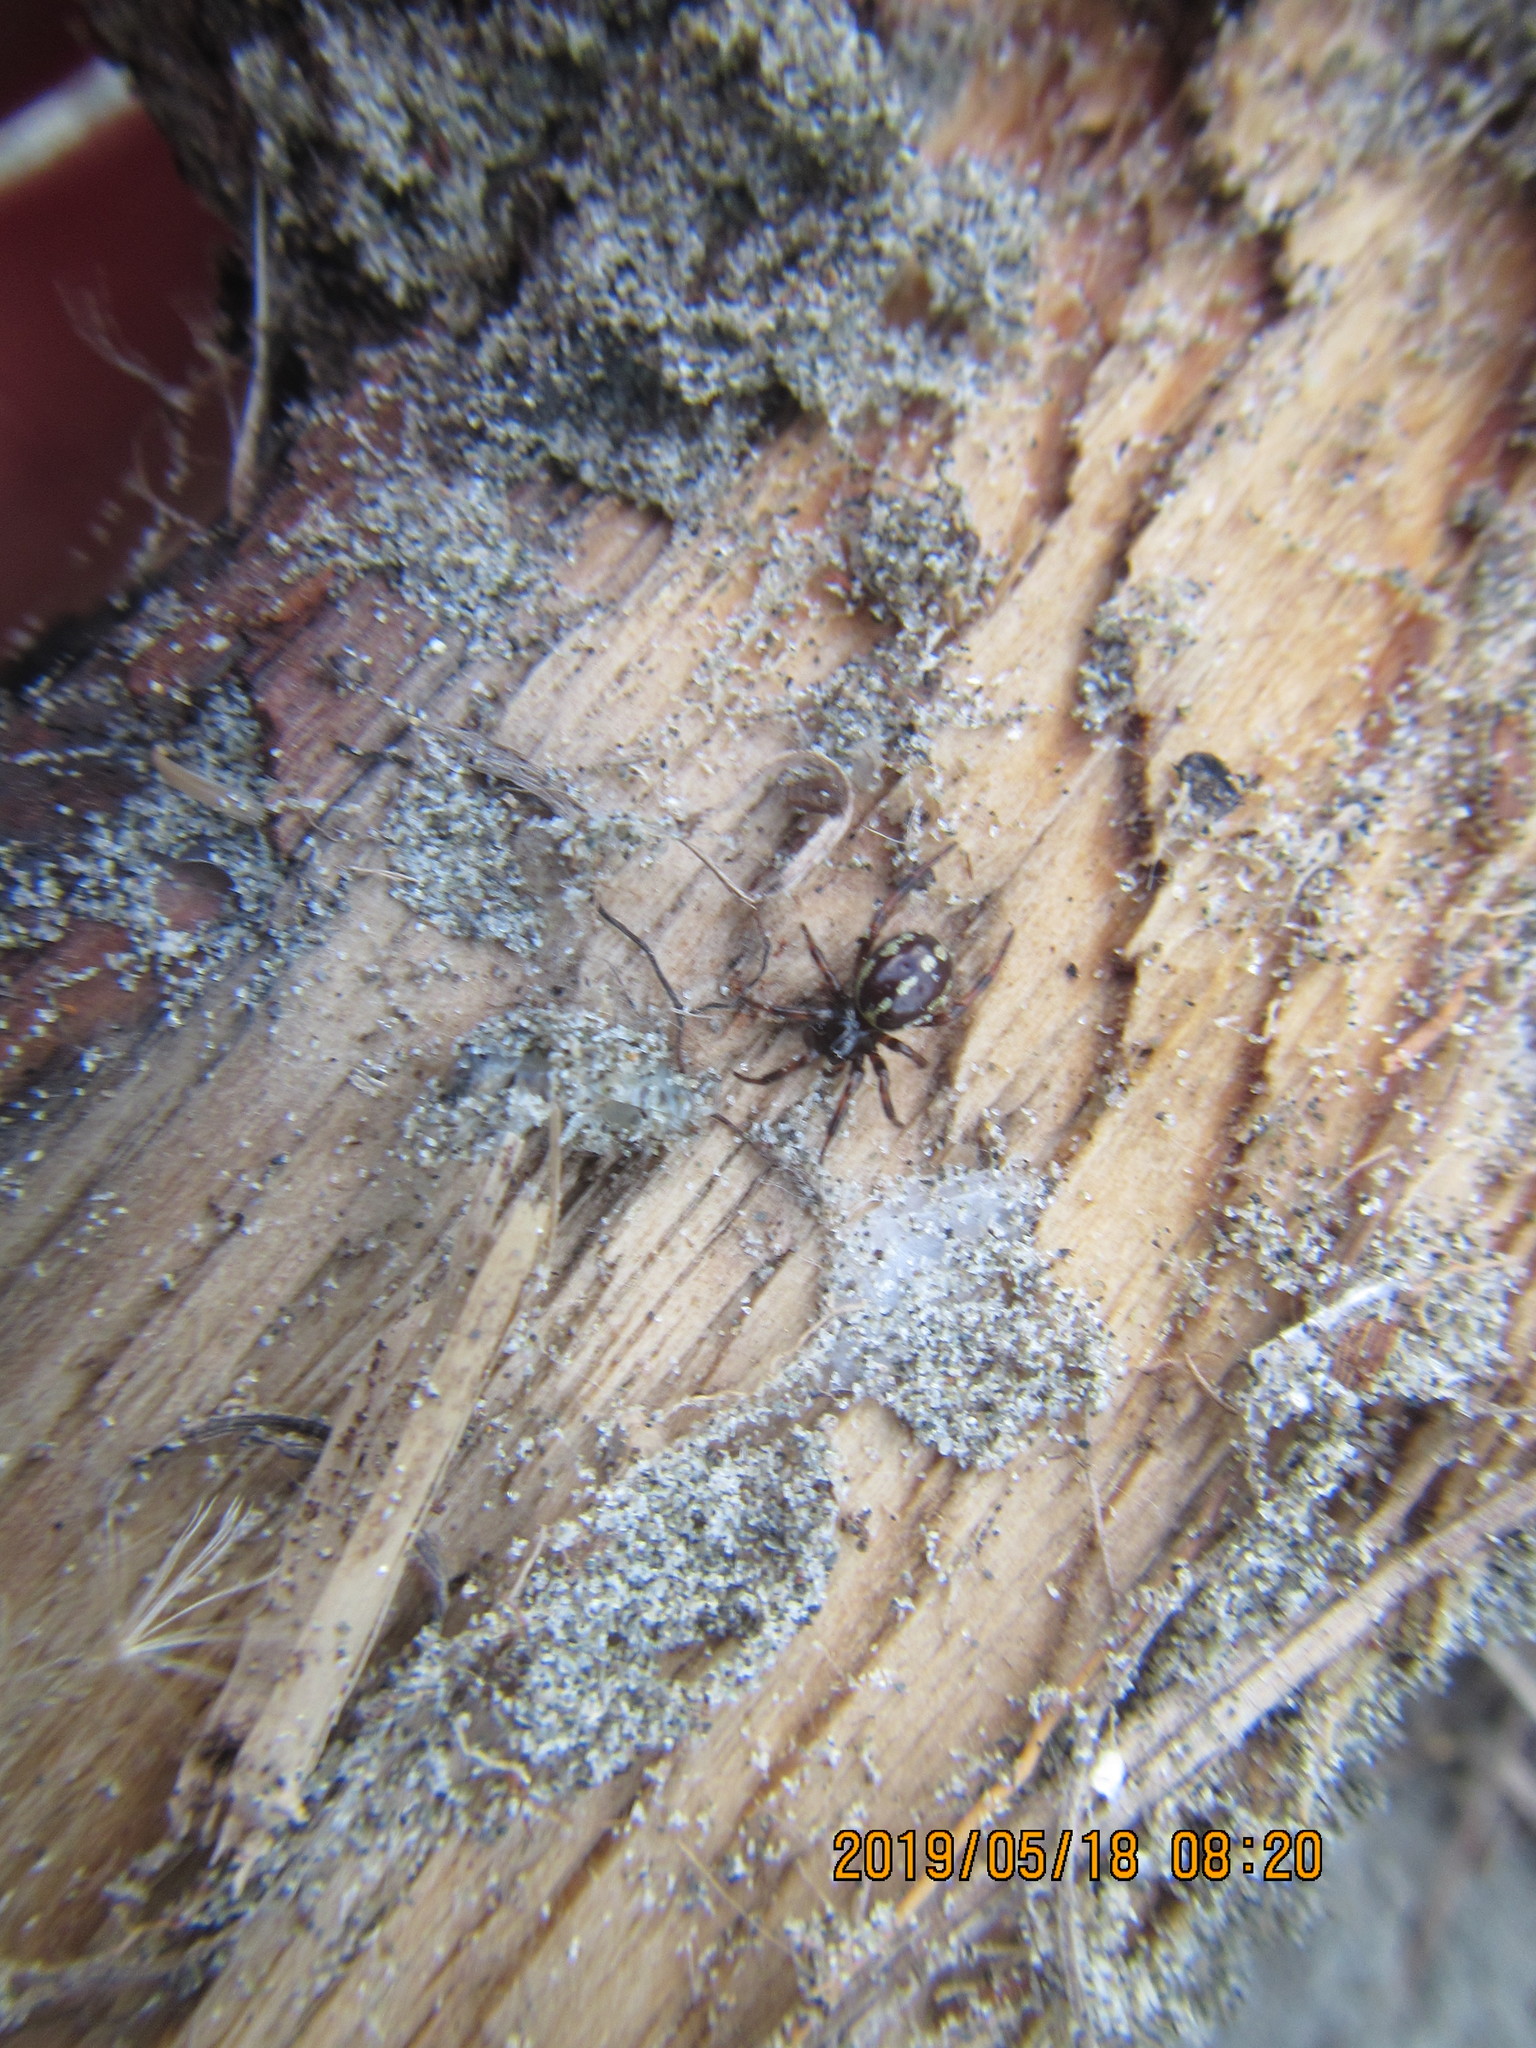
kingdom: Animalia
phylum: Arthropoda
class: Arachnida
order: Araneae
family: Theridiidae
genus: Steatoda
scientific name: Steatoda lepida
